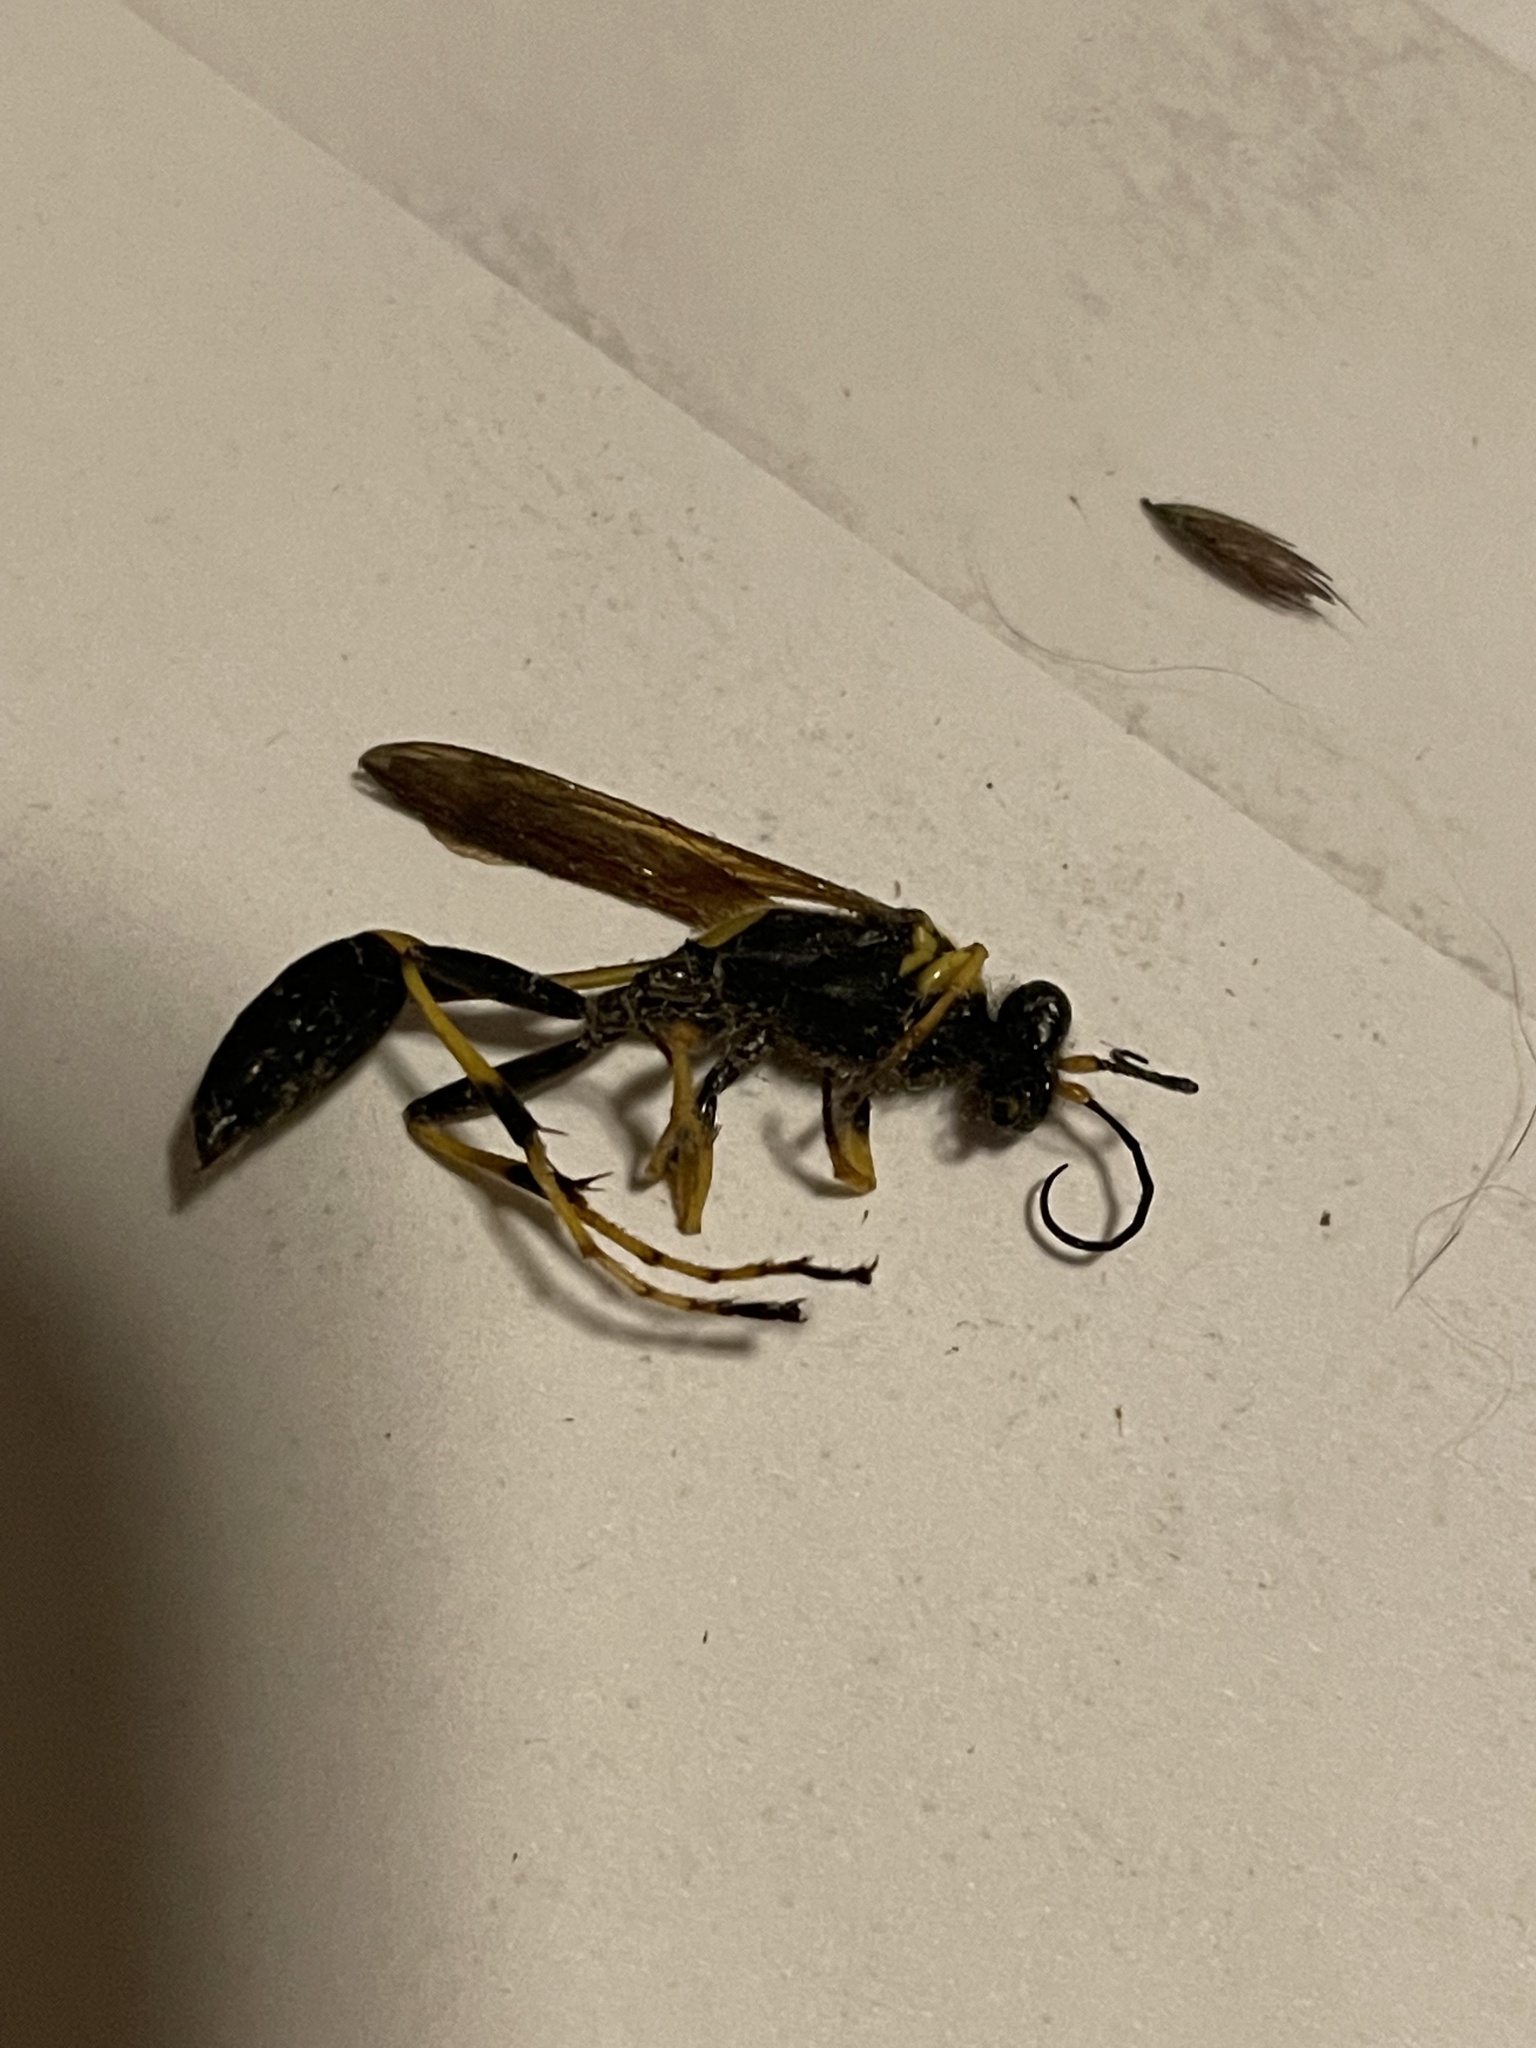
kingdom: Animalia
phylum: Arthropoda
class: Insecta
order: Hymenoptera
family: Sphecidae
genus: Sceliphron
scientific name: Sceliphron caementarium
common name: Mud dauber
